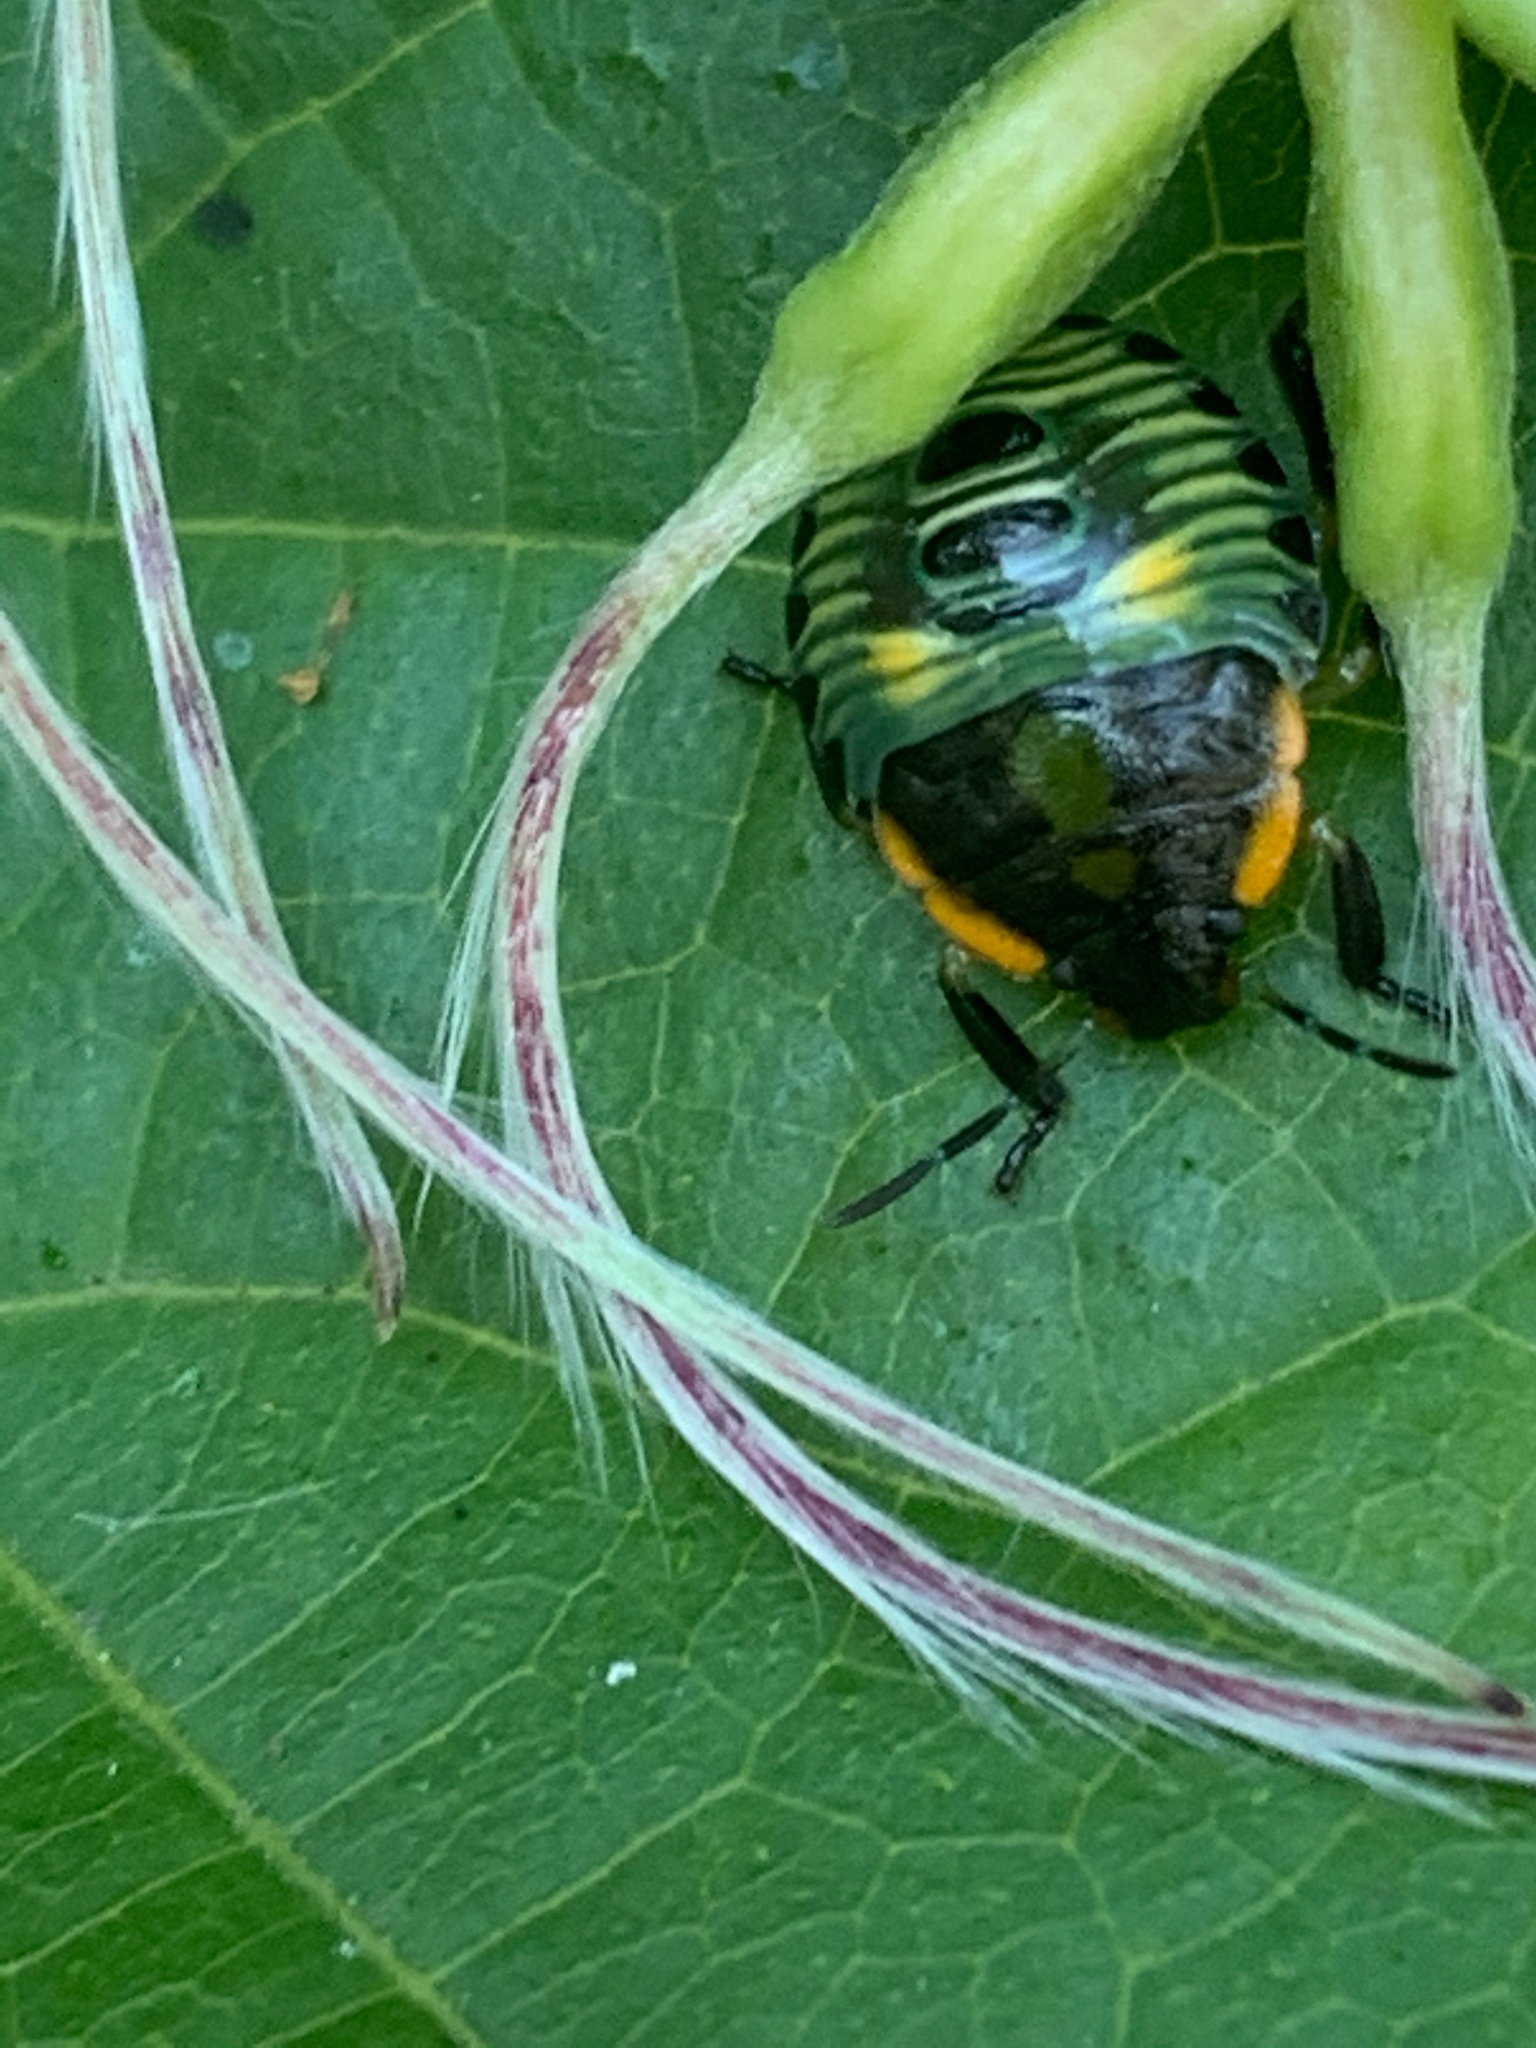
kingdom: Animalia
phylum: Arthropoda
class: Insecta
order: Hemiptera
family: Pentatomidae
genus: Chinavia
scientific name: Chinavia hilaris
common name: Green stink bug
